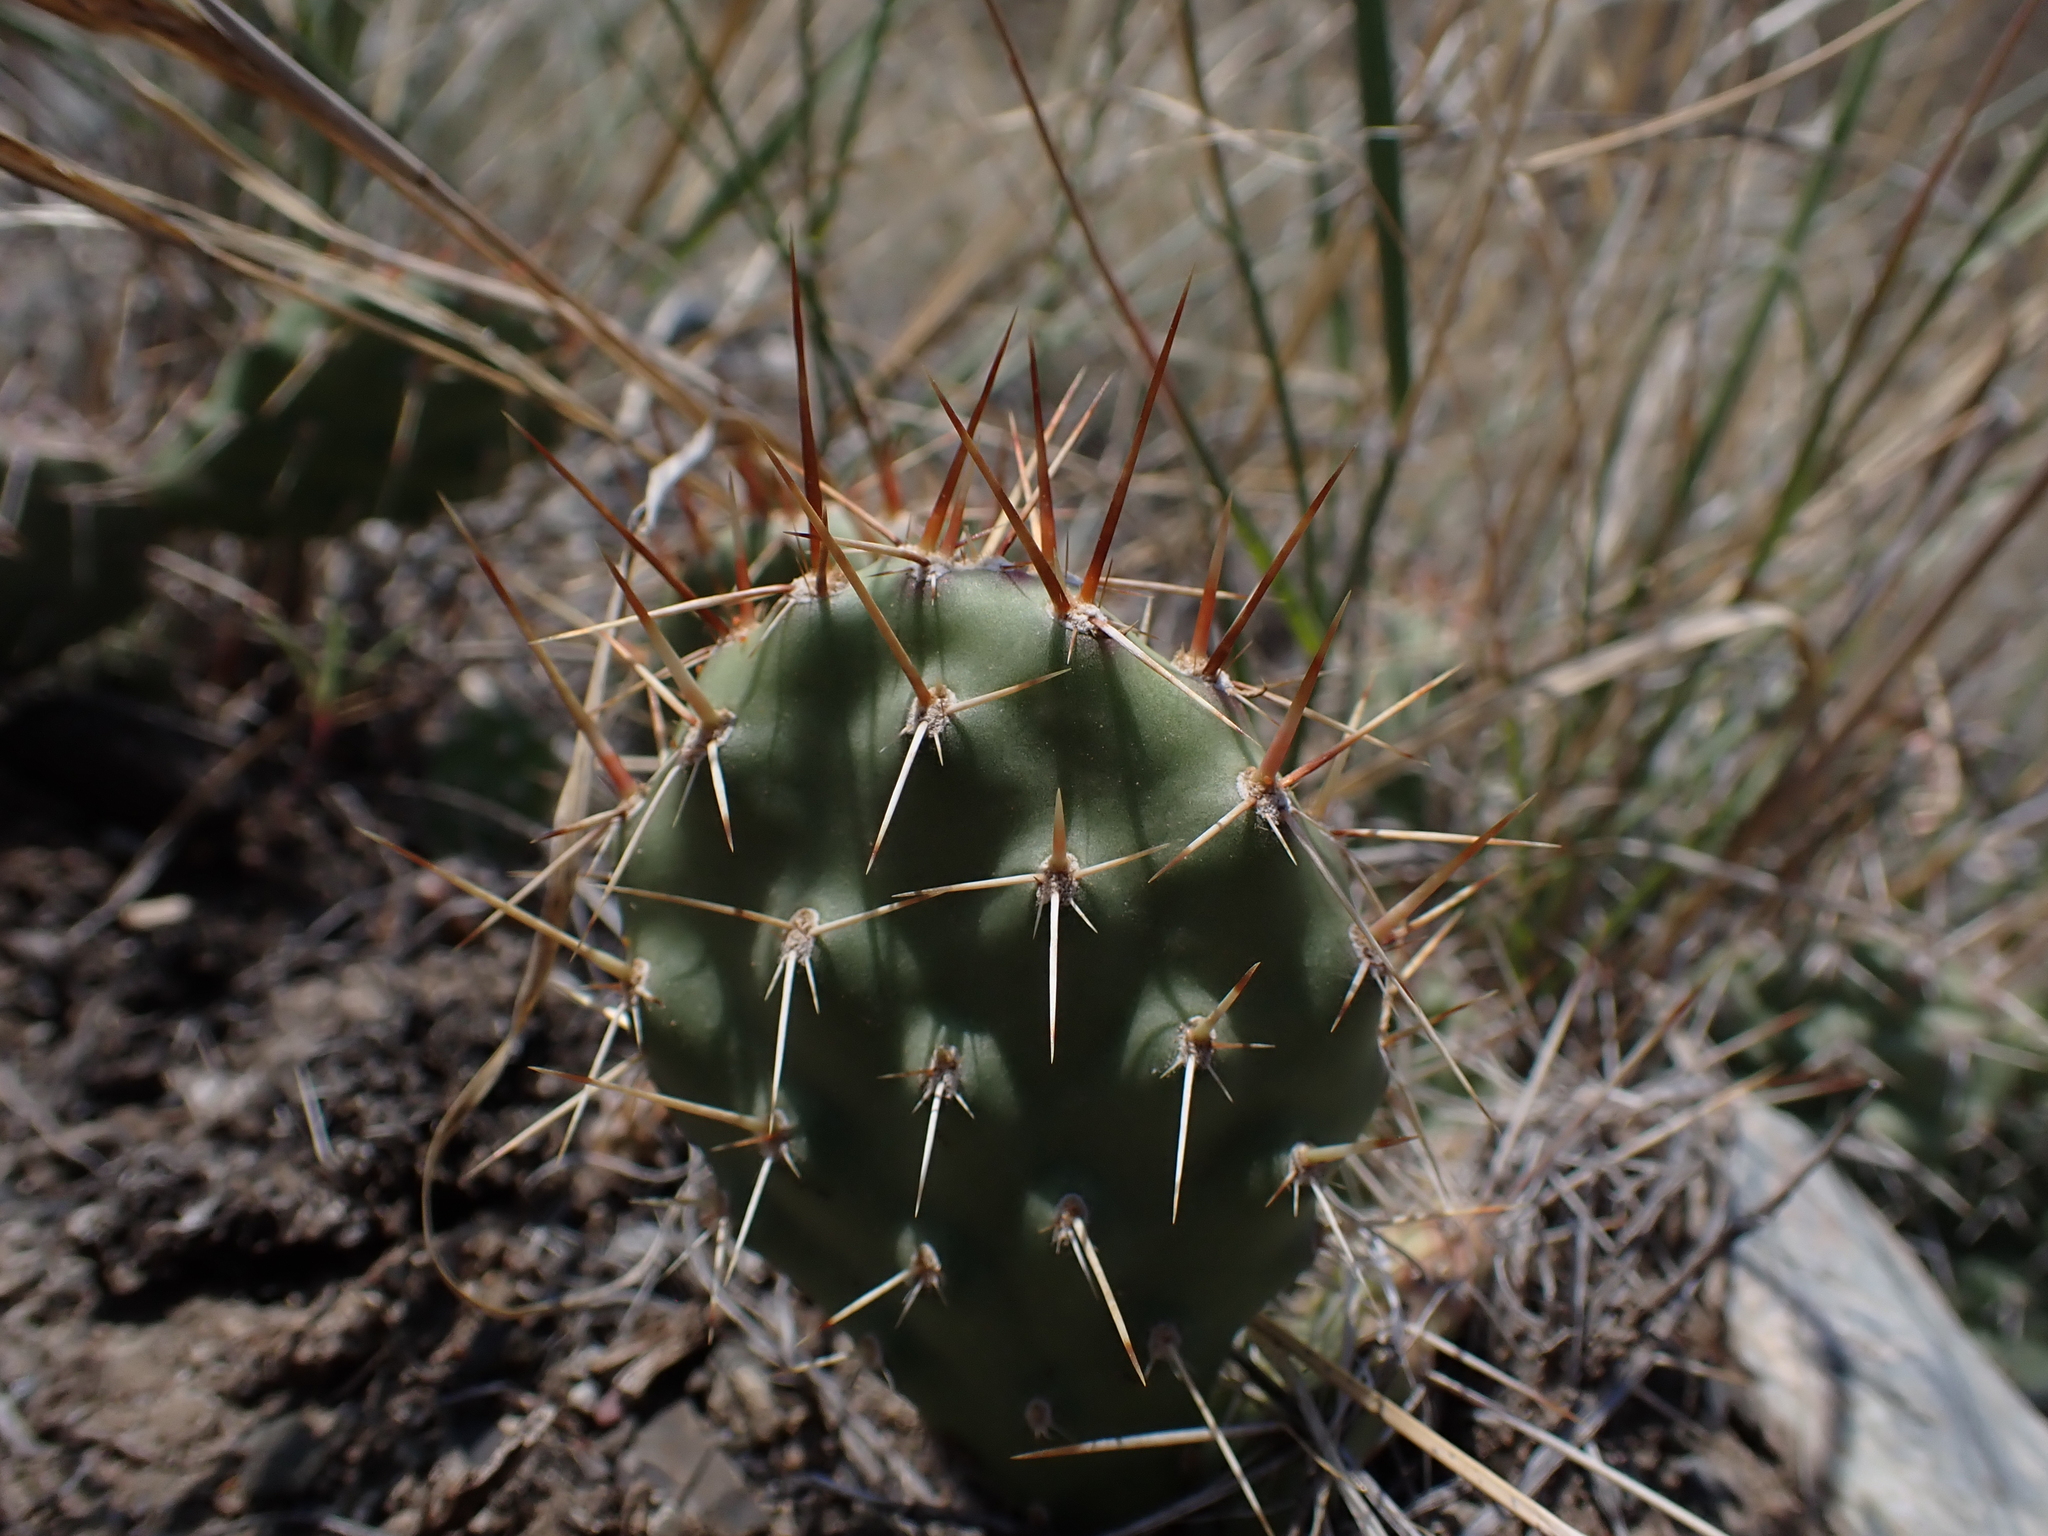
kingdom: Plantae
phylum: Tracheophyta
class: Magnoliopsida
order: Caryophyllales
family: Cactaceae
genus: Opuntia
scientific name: Opuntia columbiana
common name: Columbia prickly-pear
